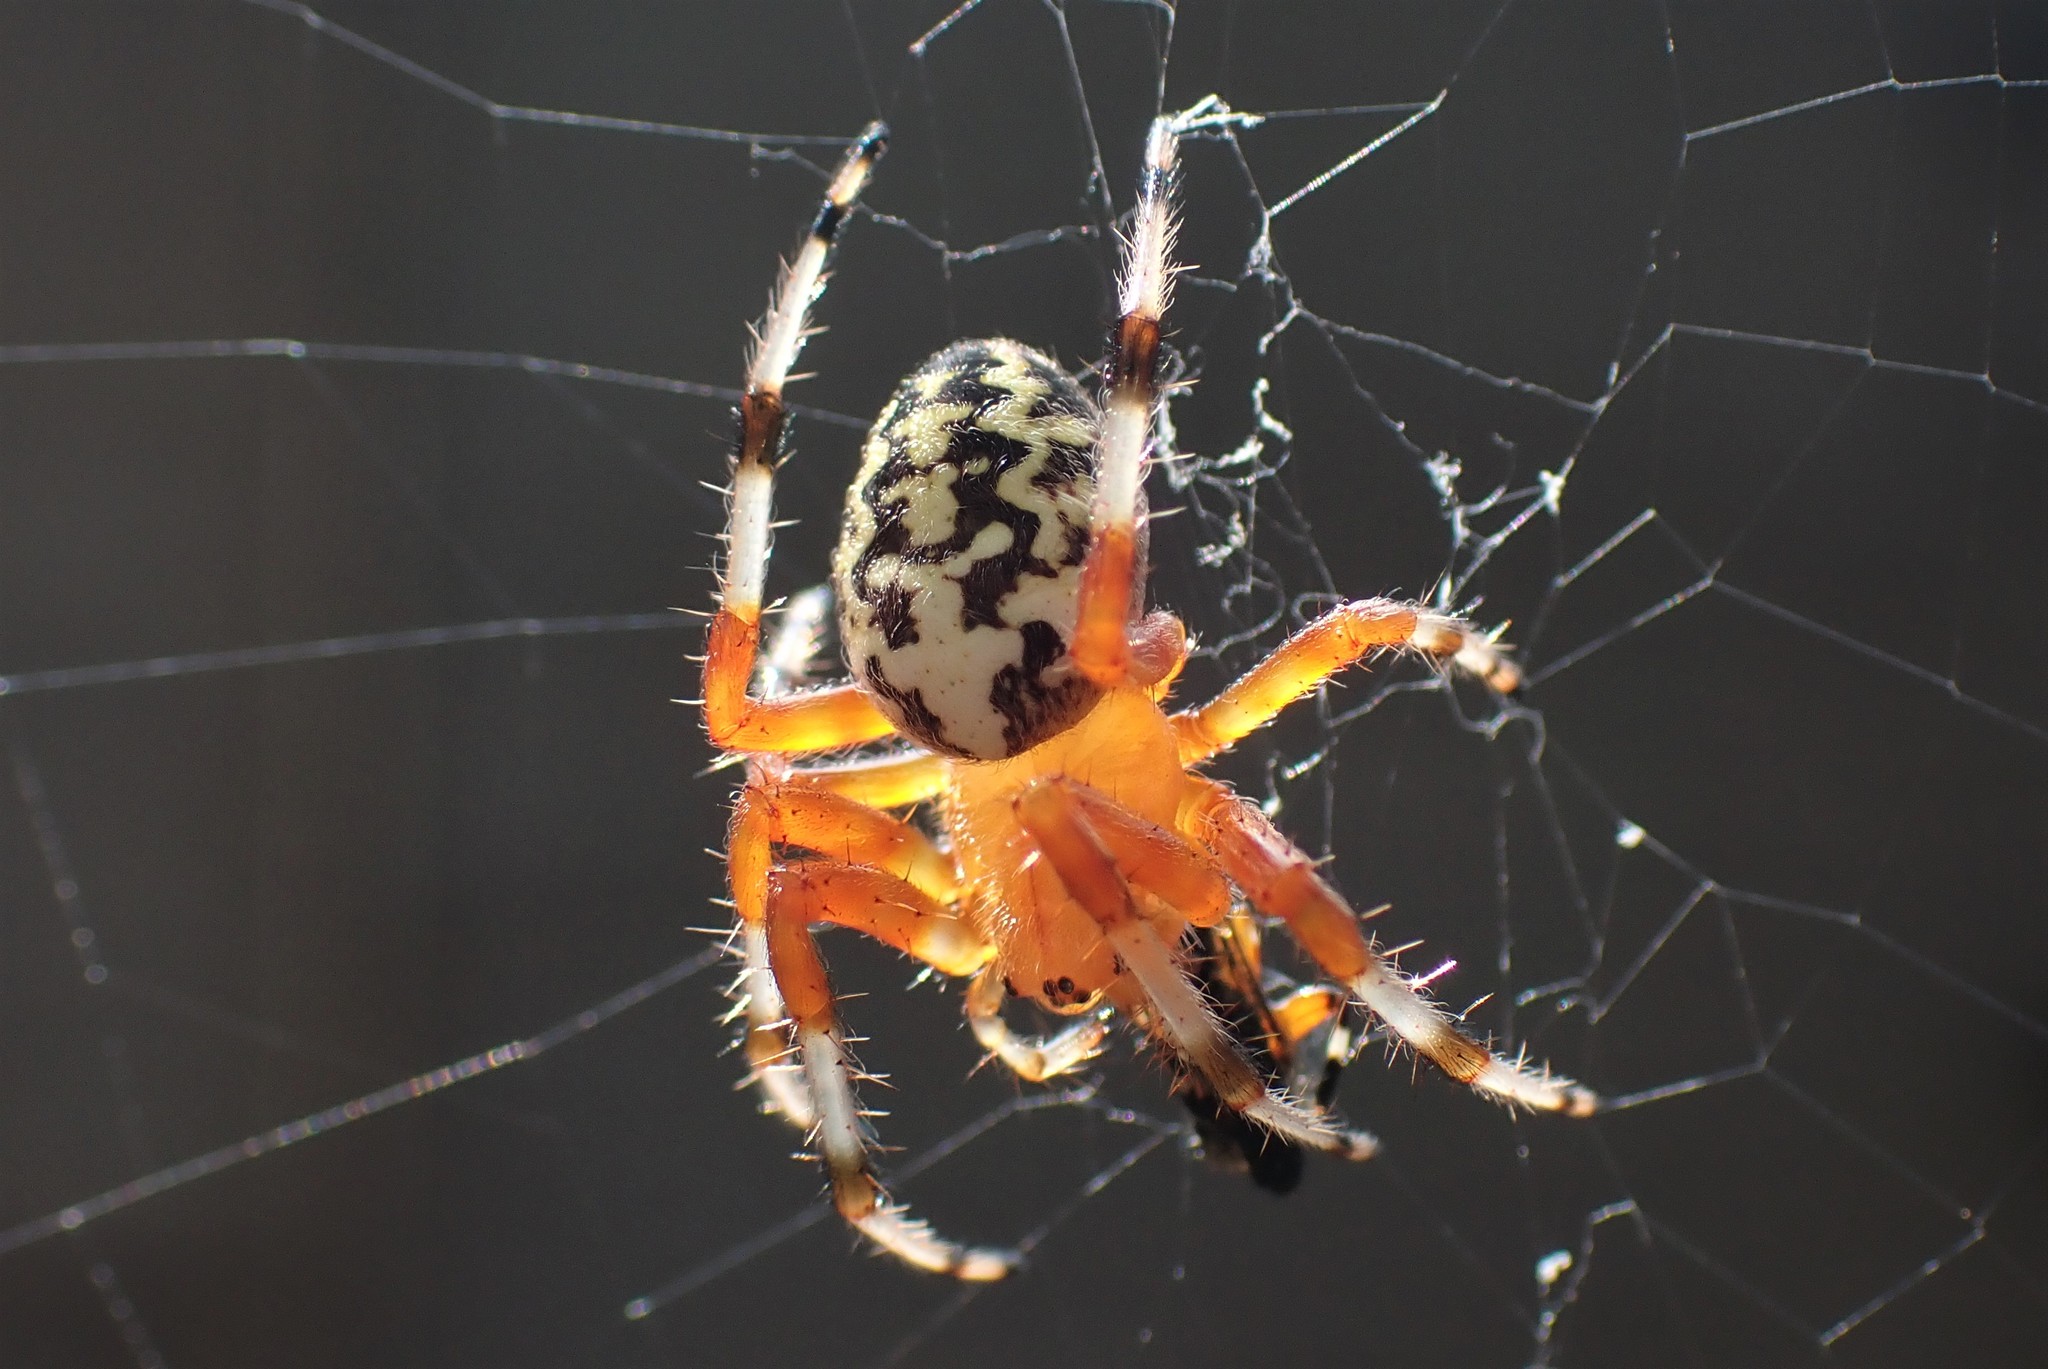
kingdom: Animalia
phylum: Arthropoda
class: Arachnida
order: Araneae
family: Araneidae
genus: Araneus
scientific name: Araneus marmoreus
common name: Marbled orbweaver
